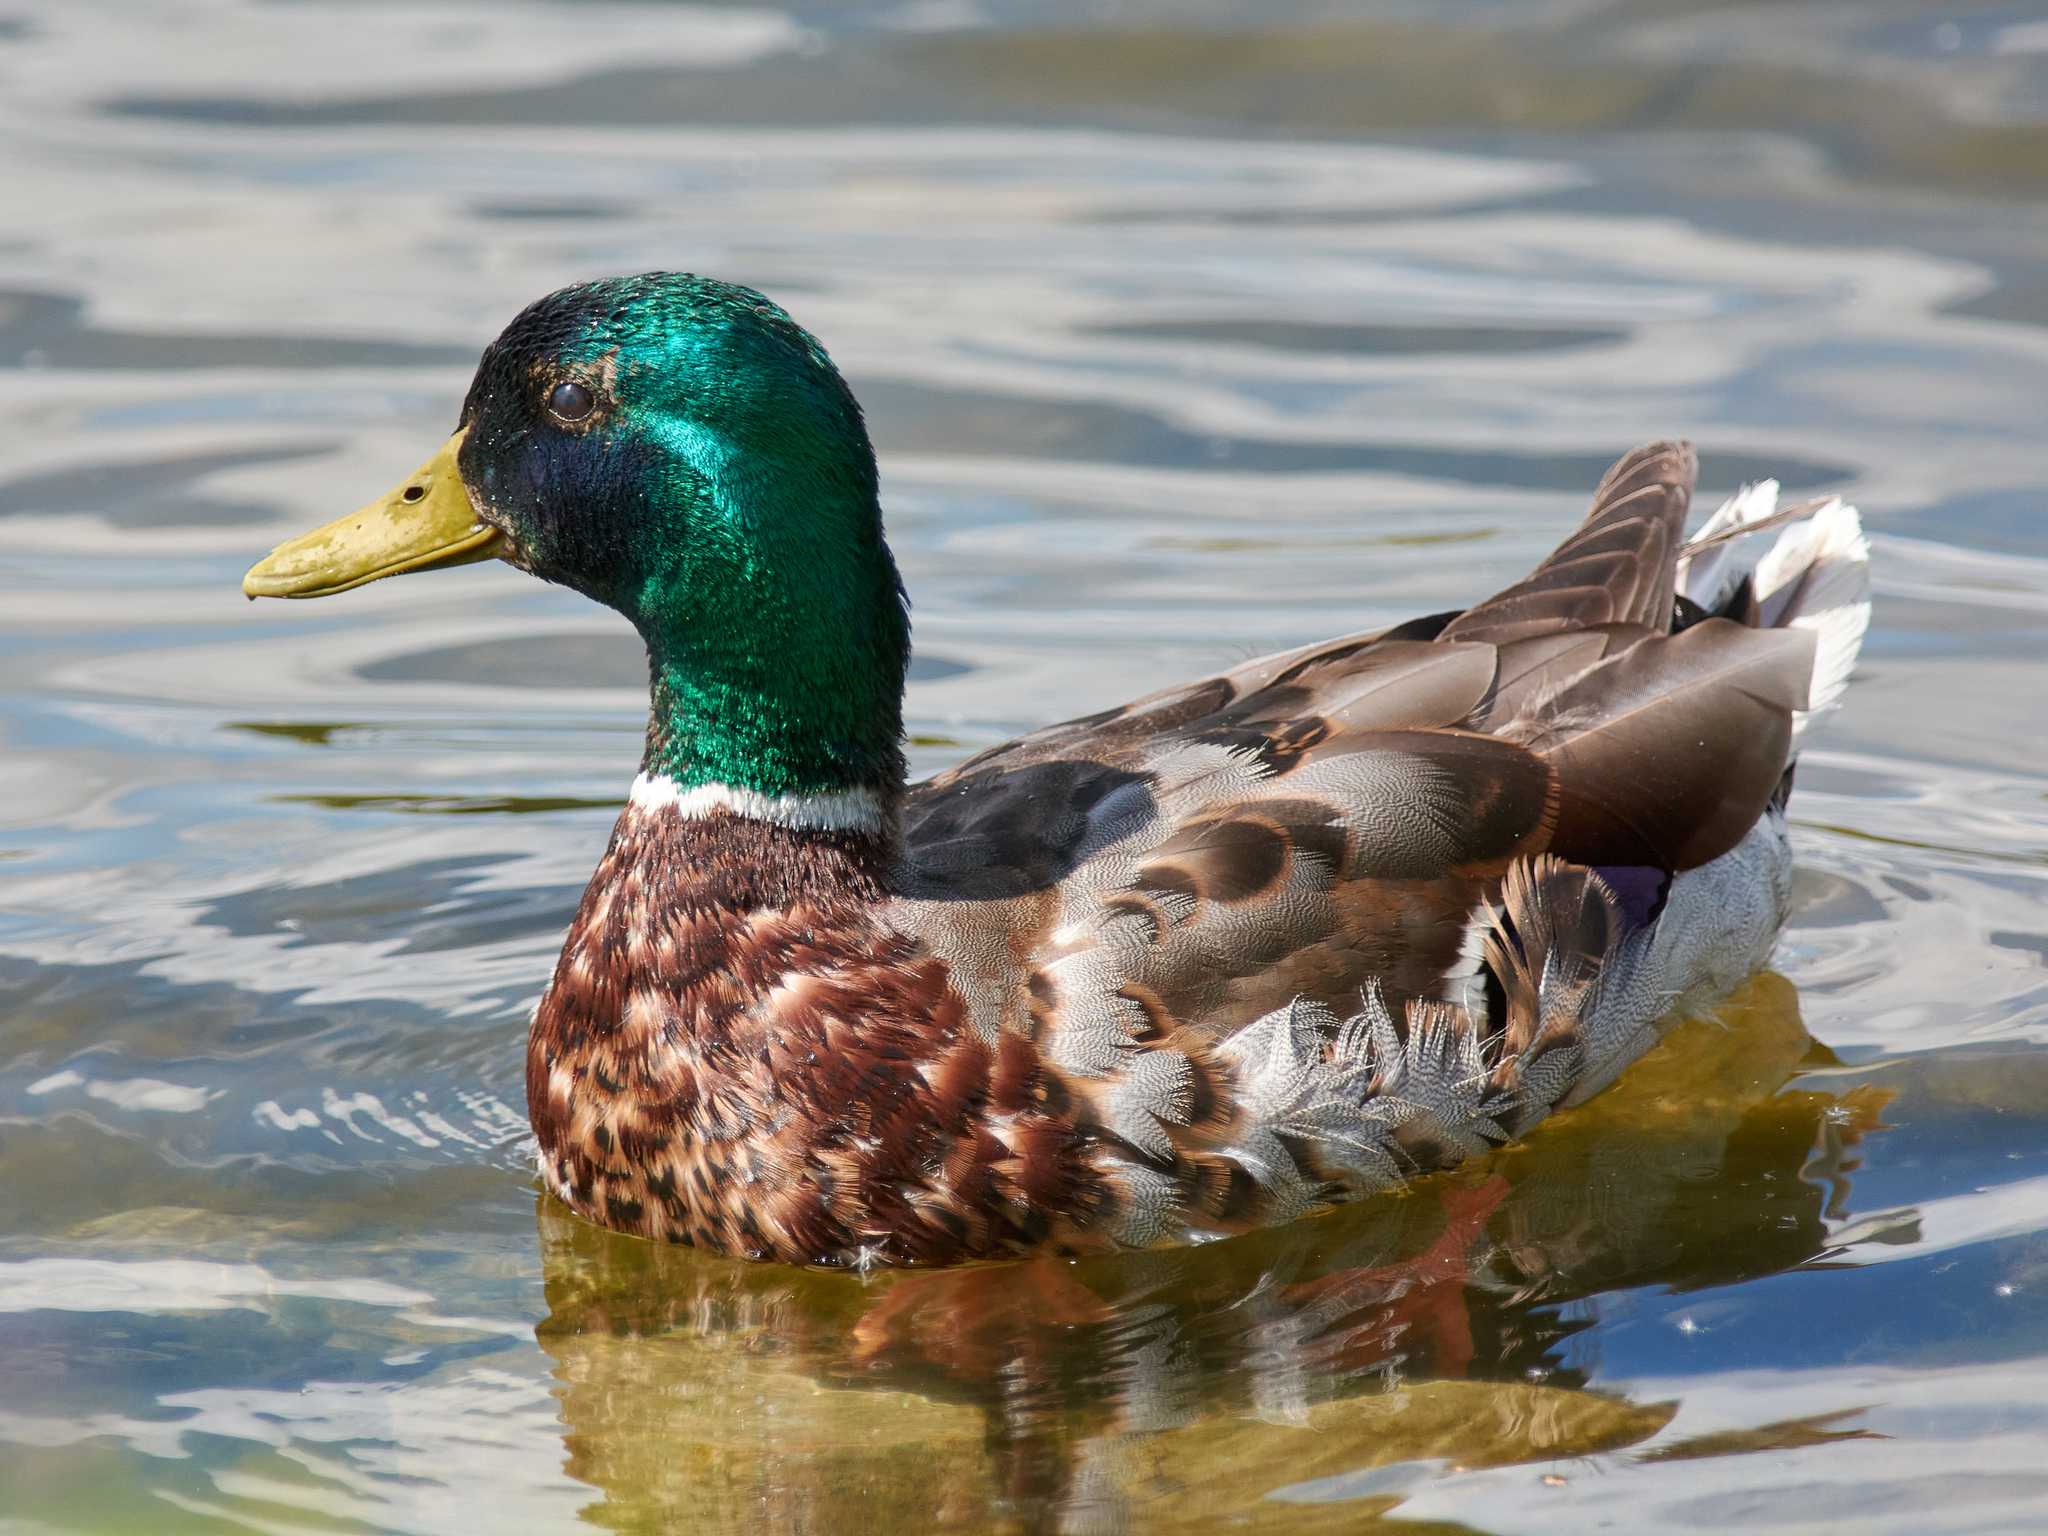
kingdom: Animalia
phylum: Chordata
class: Aves
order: Anseriformes
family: Anatidae
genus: Anas
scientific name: Anas platyrhynchos
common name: Mallard
